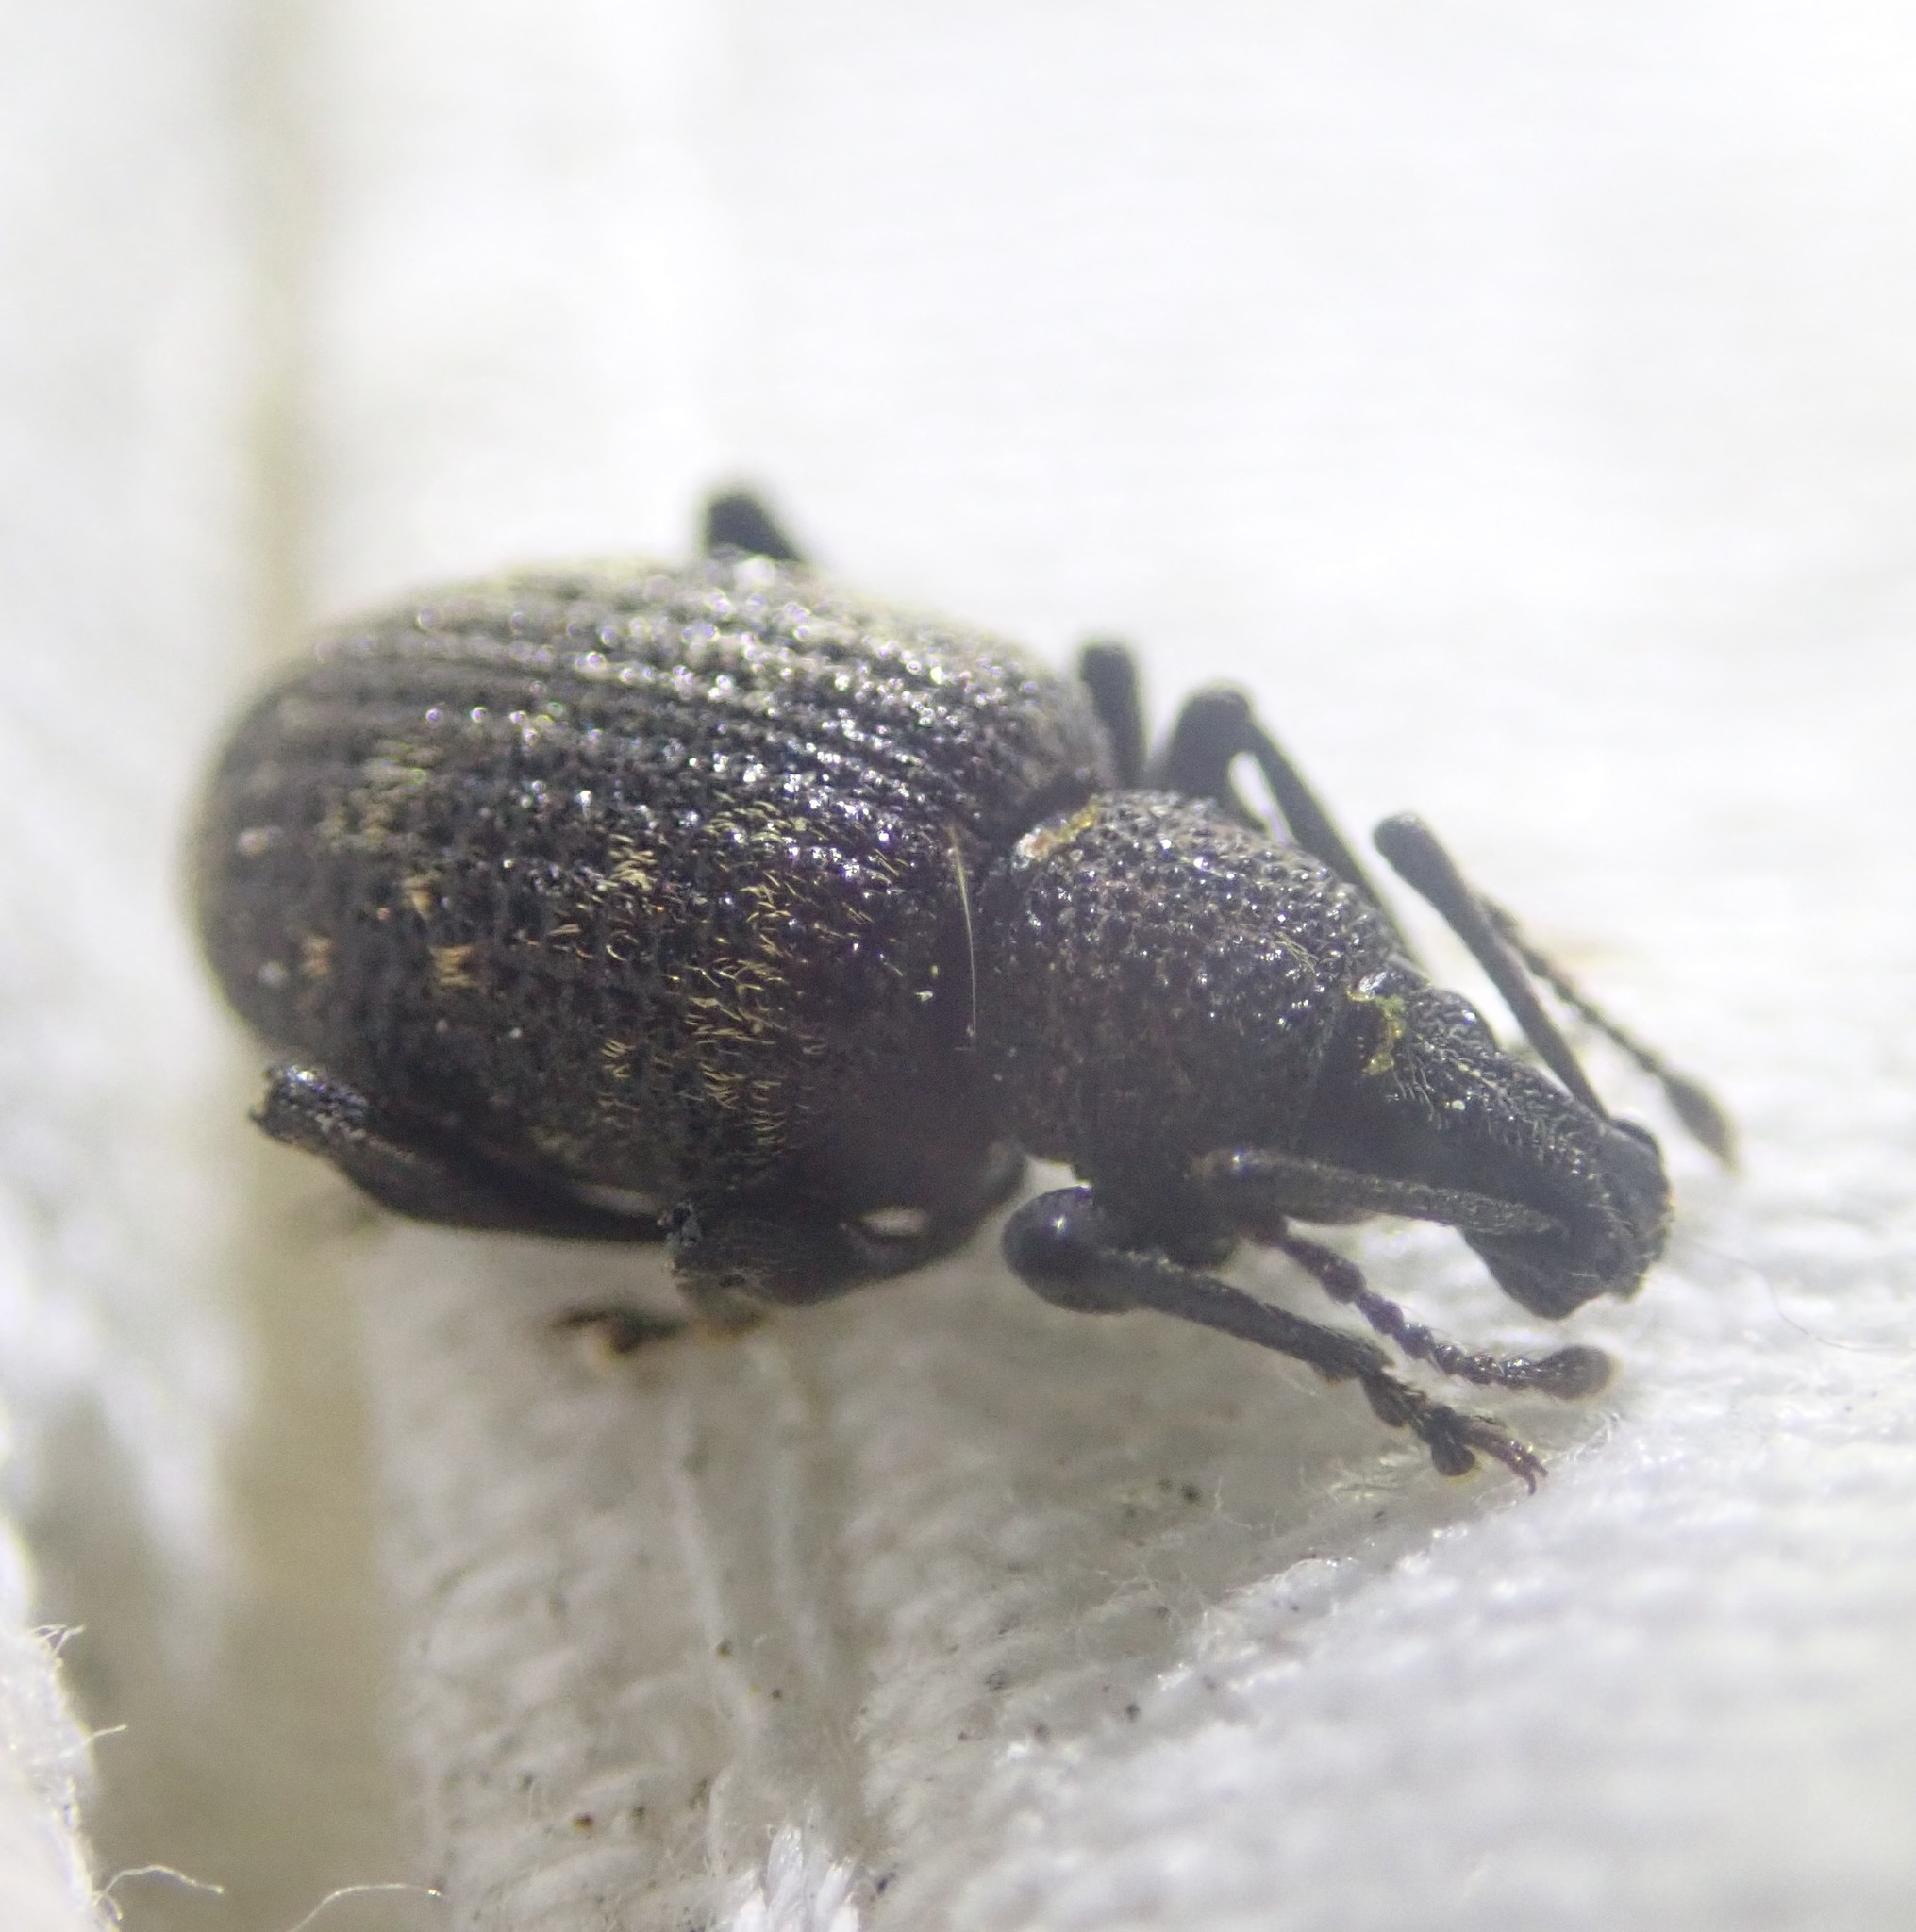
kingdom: Animalia
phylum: Arthropoda
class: Insecta
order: Coleoptera
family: Curculionidae
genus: Otiorhynchus
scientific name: Otiorhynchus sulcatus
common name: Black vine weevil
